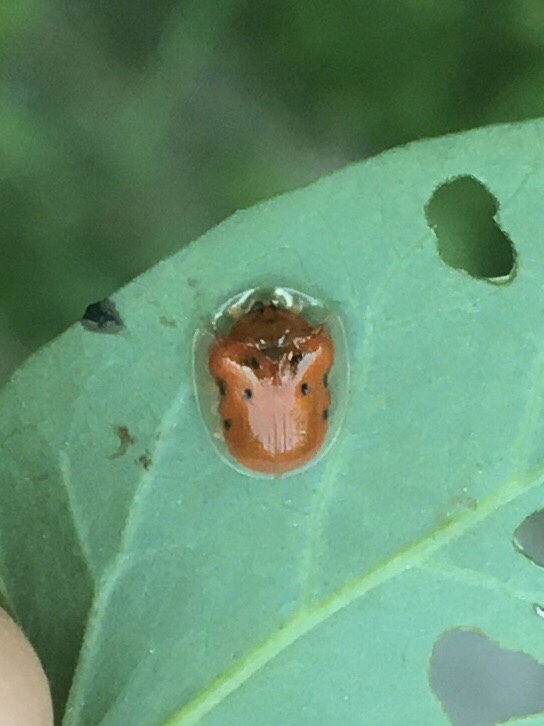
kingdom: Animalia
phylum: Arthropoda
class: Insecta
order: Coleoptera
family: Chrysomelidae
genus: Charidotella
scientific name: Charidotella sexpunctata
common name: Golden tortoise beetle
